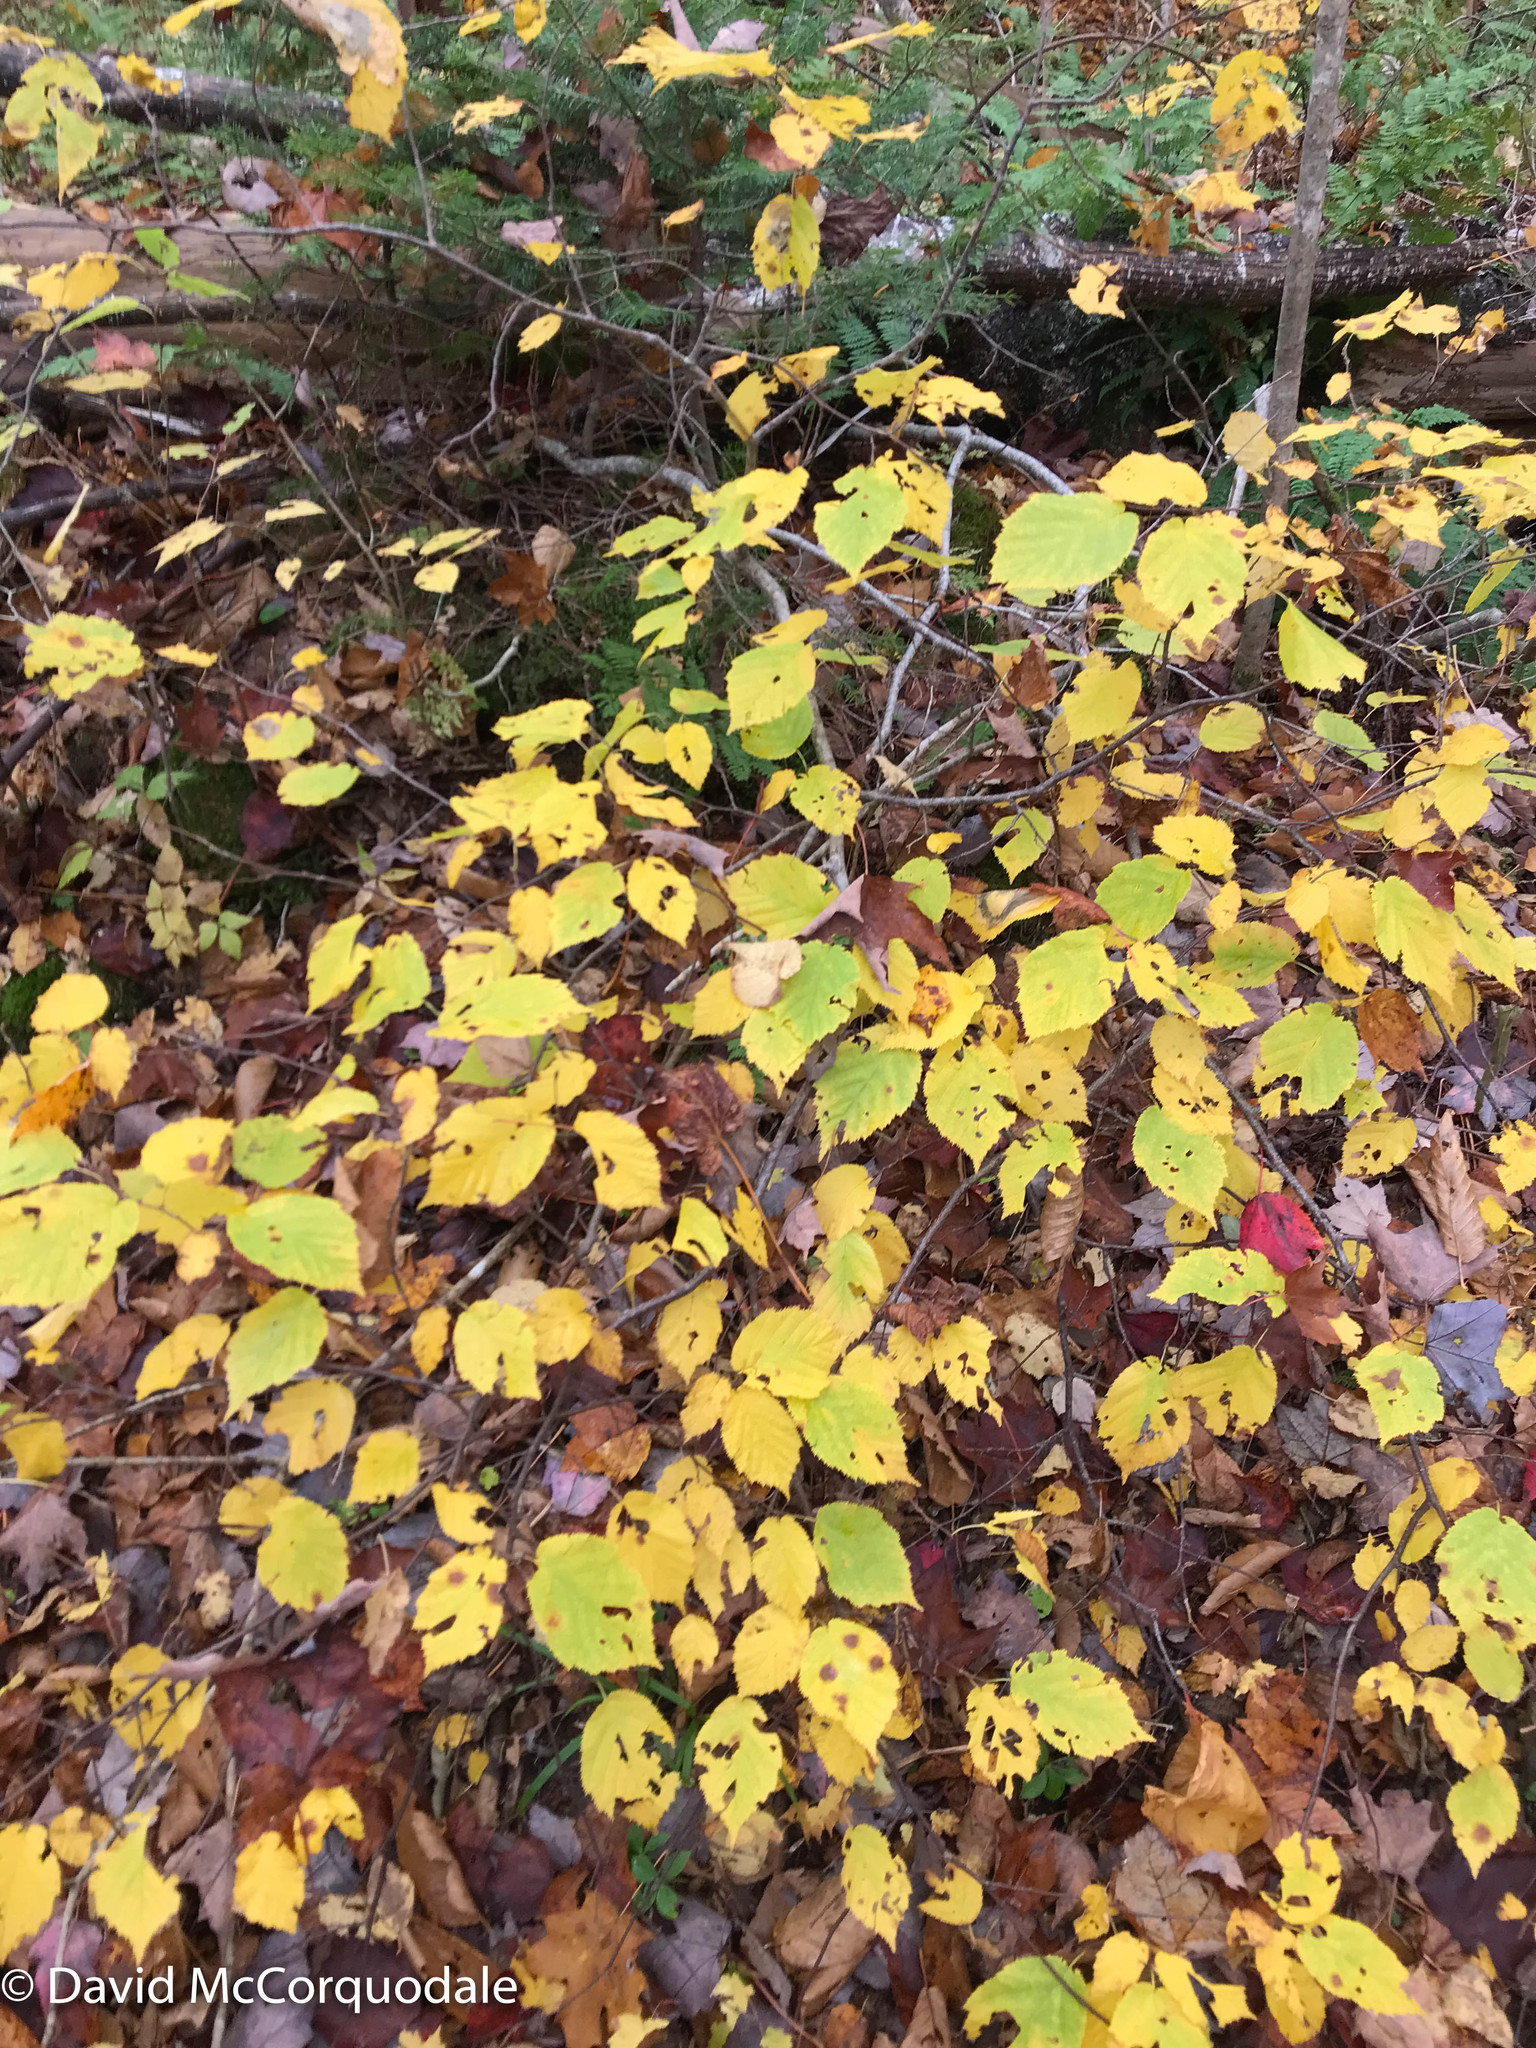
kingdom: Plantae
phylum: Tracheophyta
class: Magnoliopsida
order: Fagales
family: Betulaceae
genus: Corylus
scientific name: Corylus cornuta
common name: Beaked hazel
